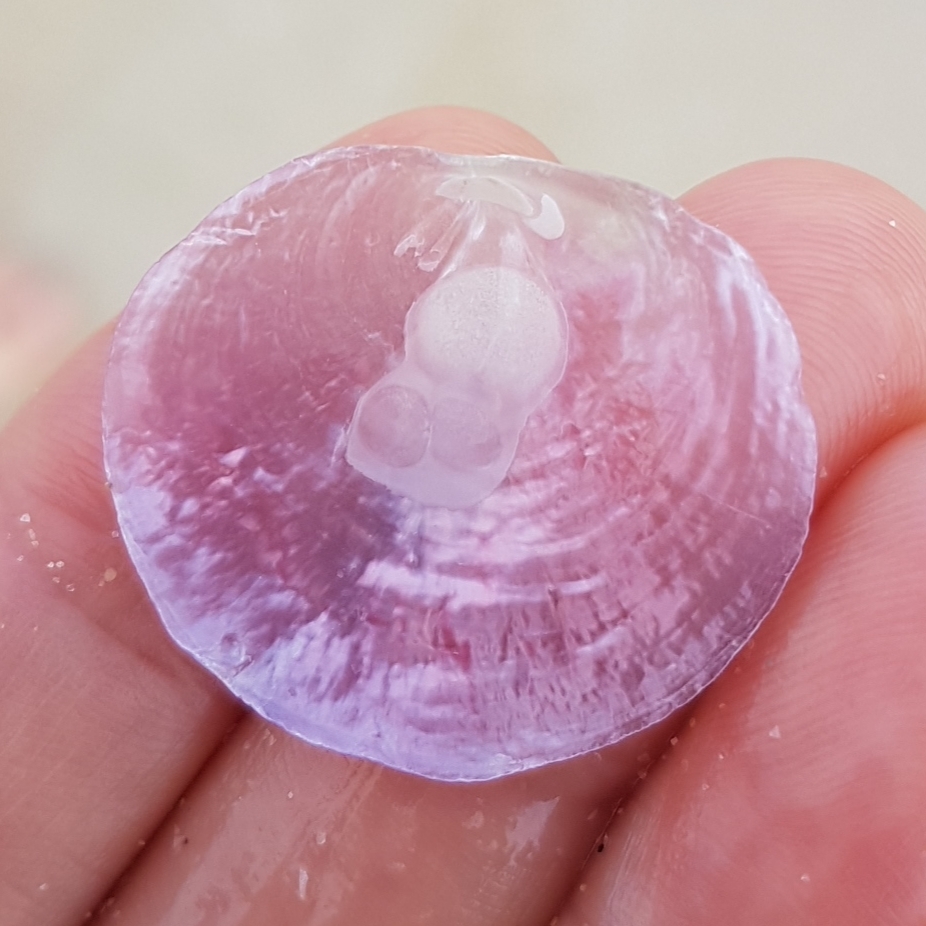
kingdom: Animalia
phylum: Mollusca
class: Bivalvia
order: Pectinida
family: Anomiidae
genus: Anomia
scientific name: Anomia ephippium
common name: Saddle oyster
